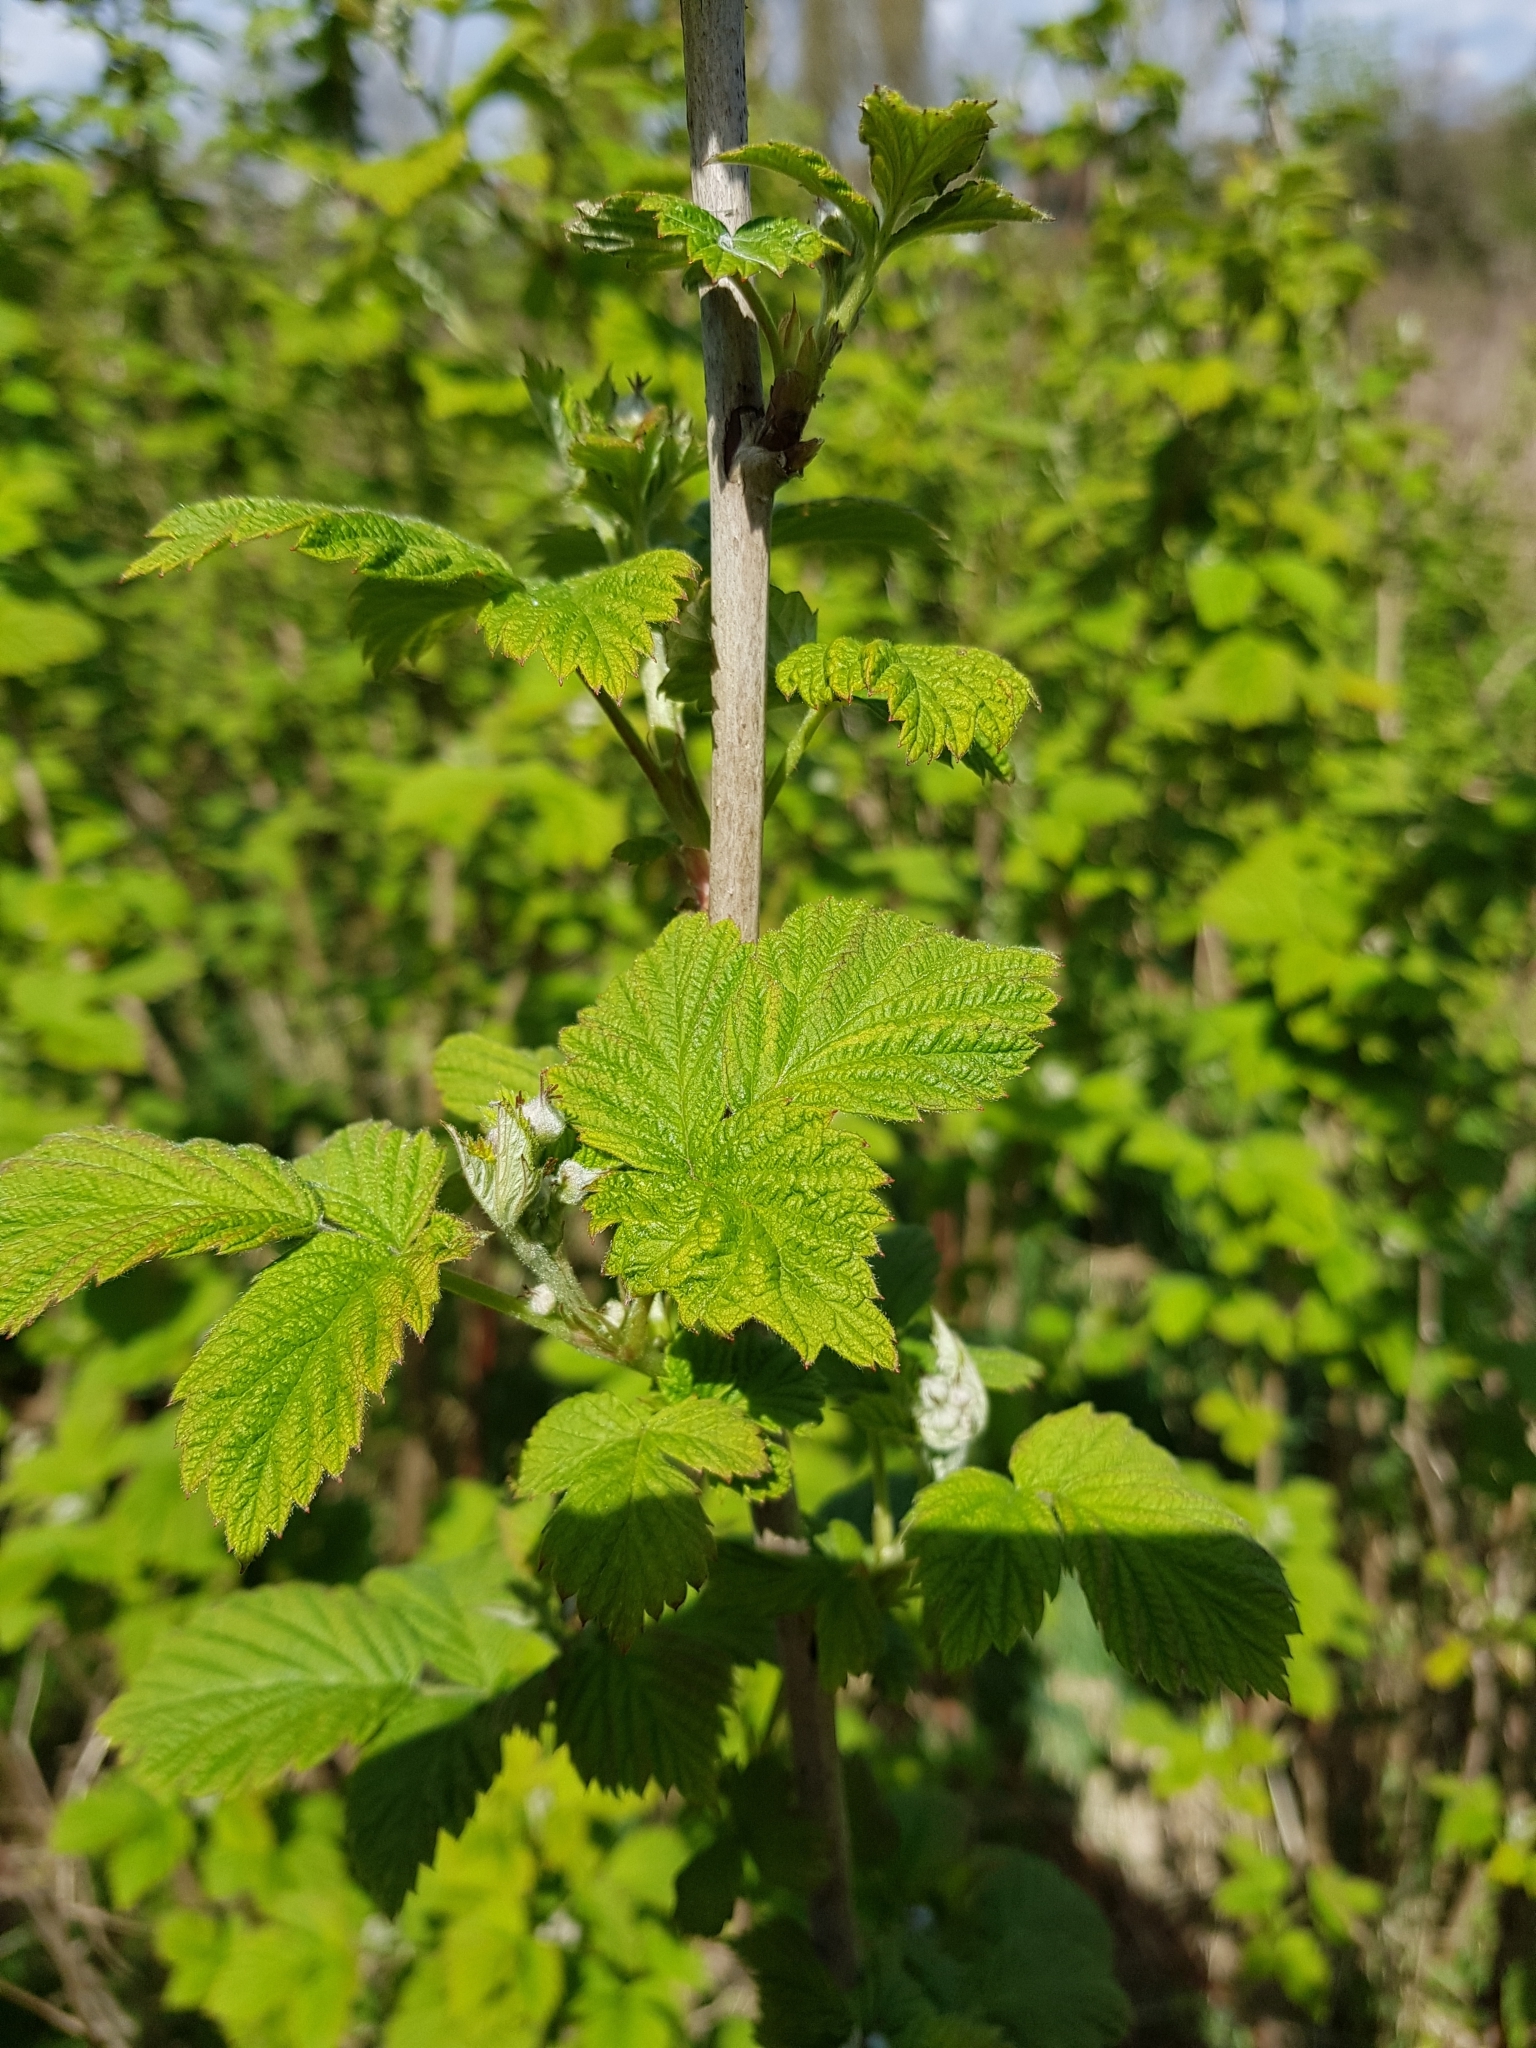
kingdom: Plantae
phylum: Tracheophyta
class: Magnoliopsida
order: Rosales
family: Rosaceae
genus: Rubus
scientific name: Rubus idaeus
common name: Raspberry
